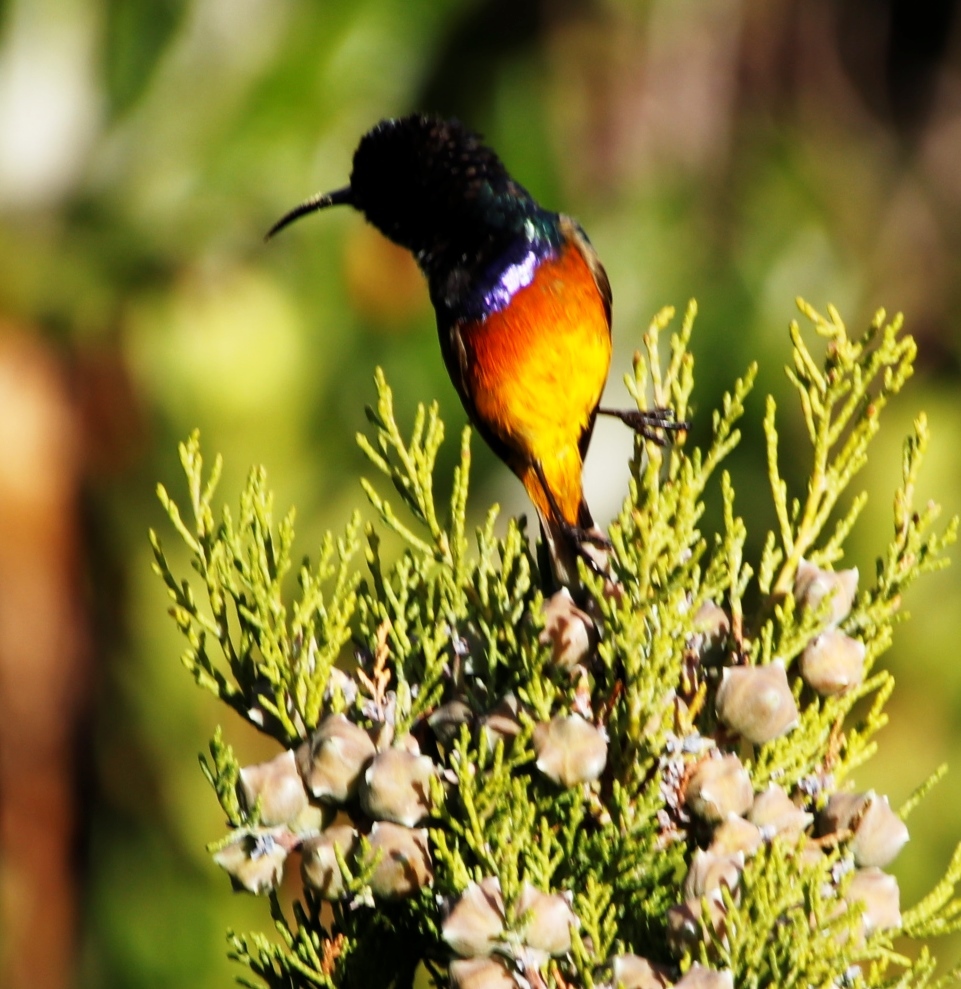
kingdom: Animalia
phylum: Chordata
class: Aves
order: Passeriformes
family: Nectariniidae
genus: Anthobaphes
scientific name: Anthobaphes violacea
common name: Orange-breasted sunbird
